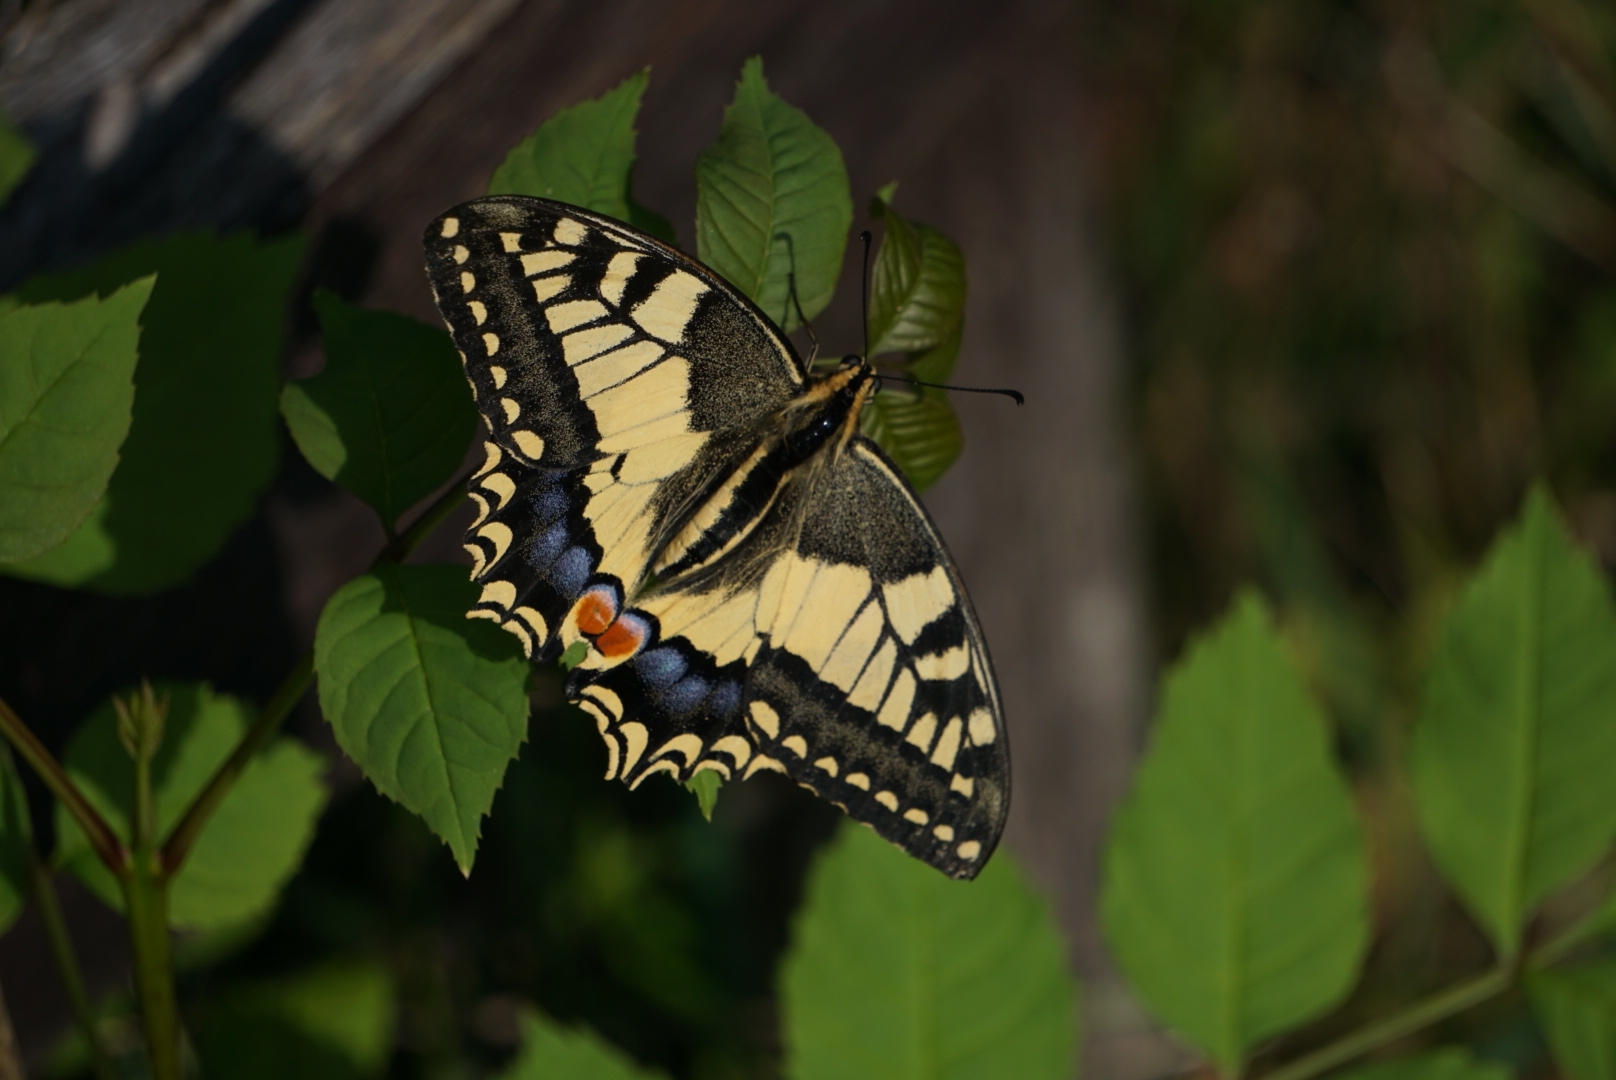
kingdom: Animalia
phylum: Arthropoda
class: Insecta
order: Lepidoptera
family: Papilionidae
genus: Papilio
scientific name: Papilio machaon
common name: Swallowtail
